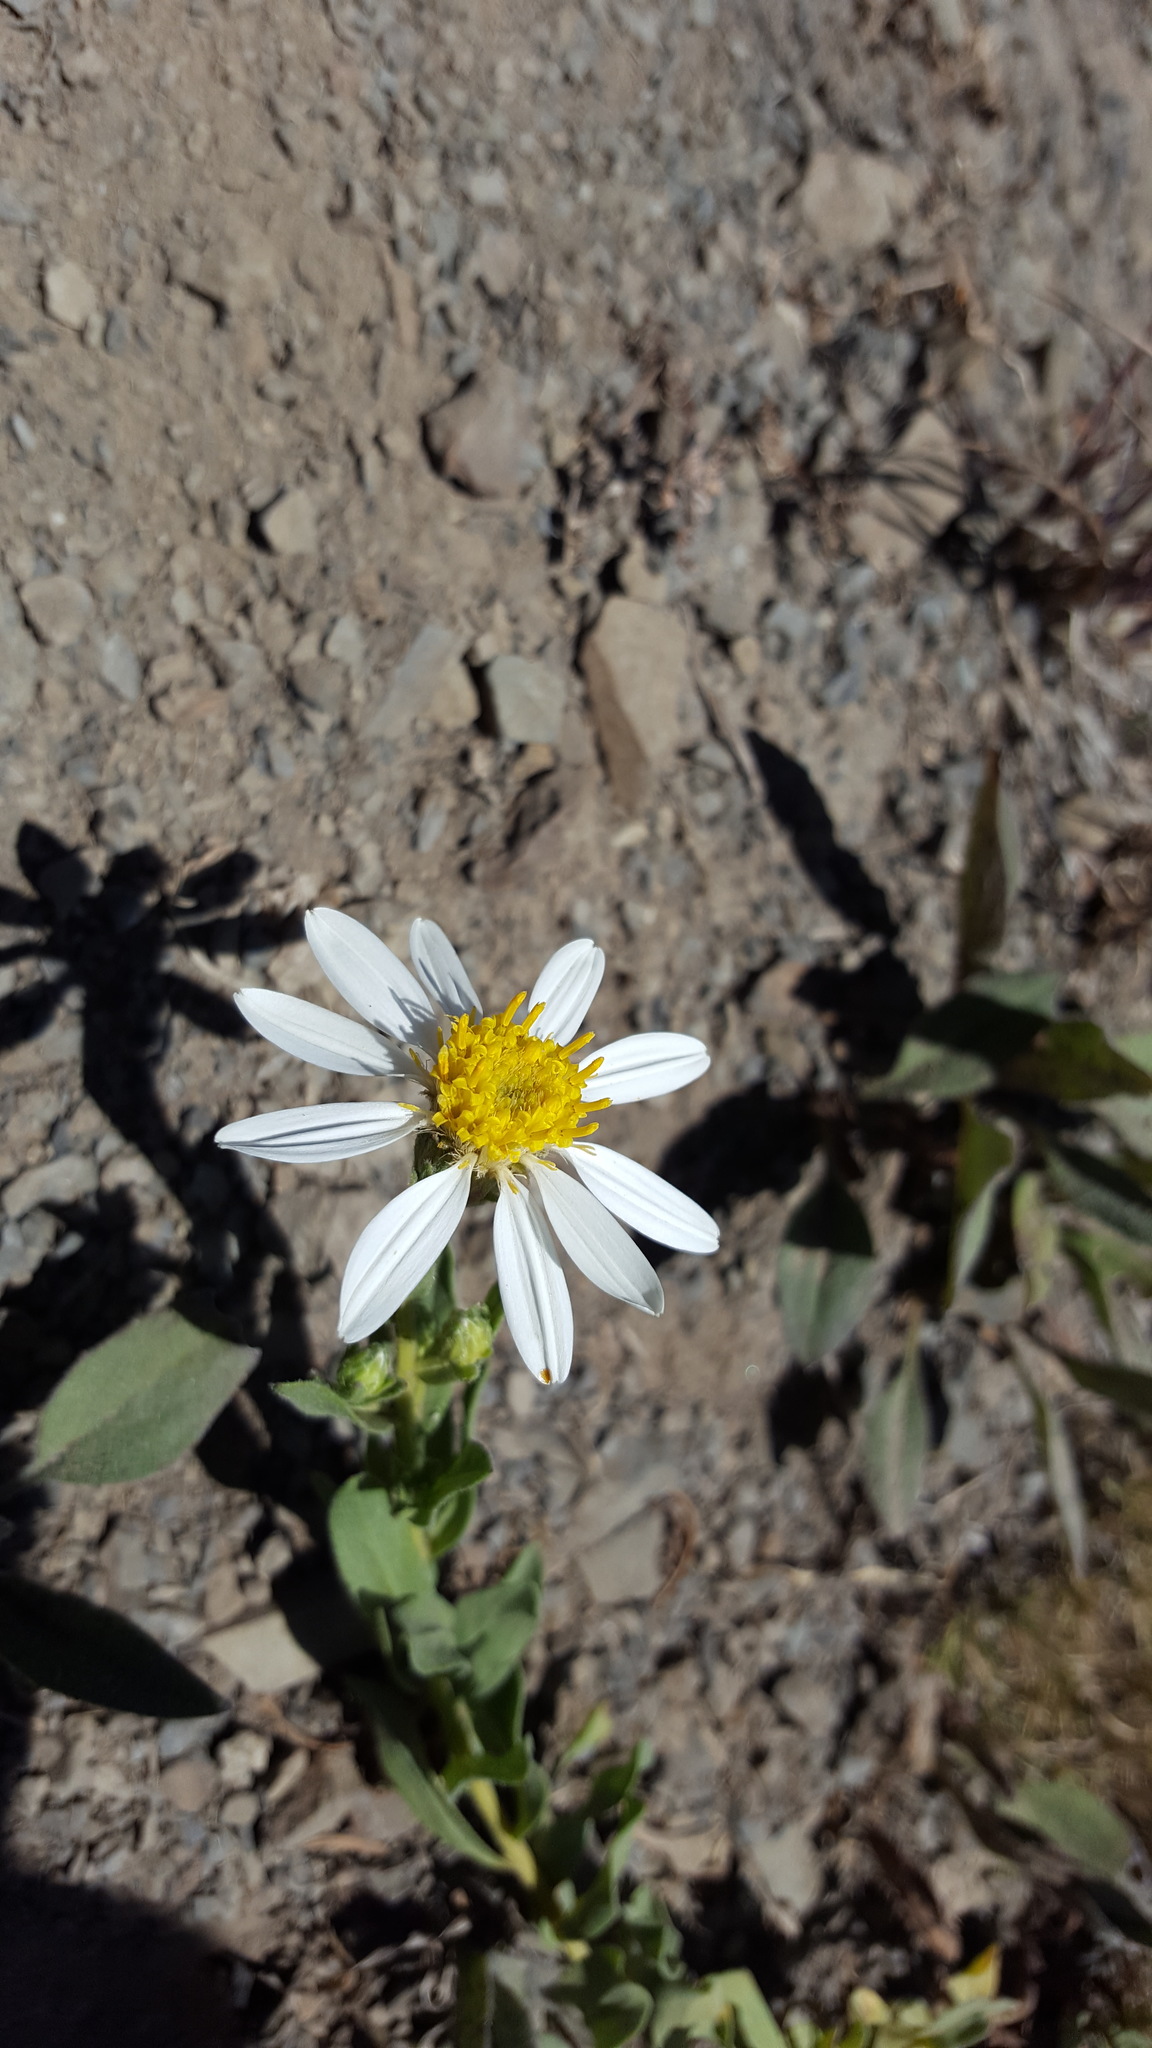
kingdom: Plantae
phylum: Tracheophyta
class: Magnoliopsida
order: Asterales
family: Asteraceae
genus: Eucephalus
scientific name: Eucephalus paucicapitatus
